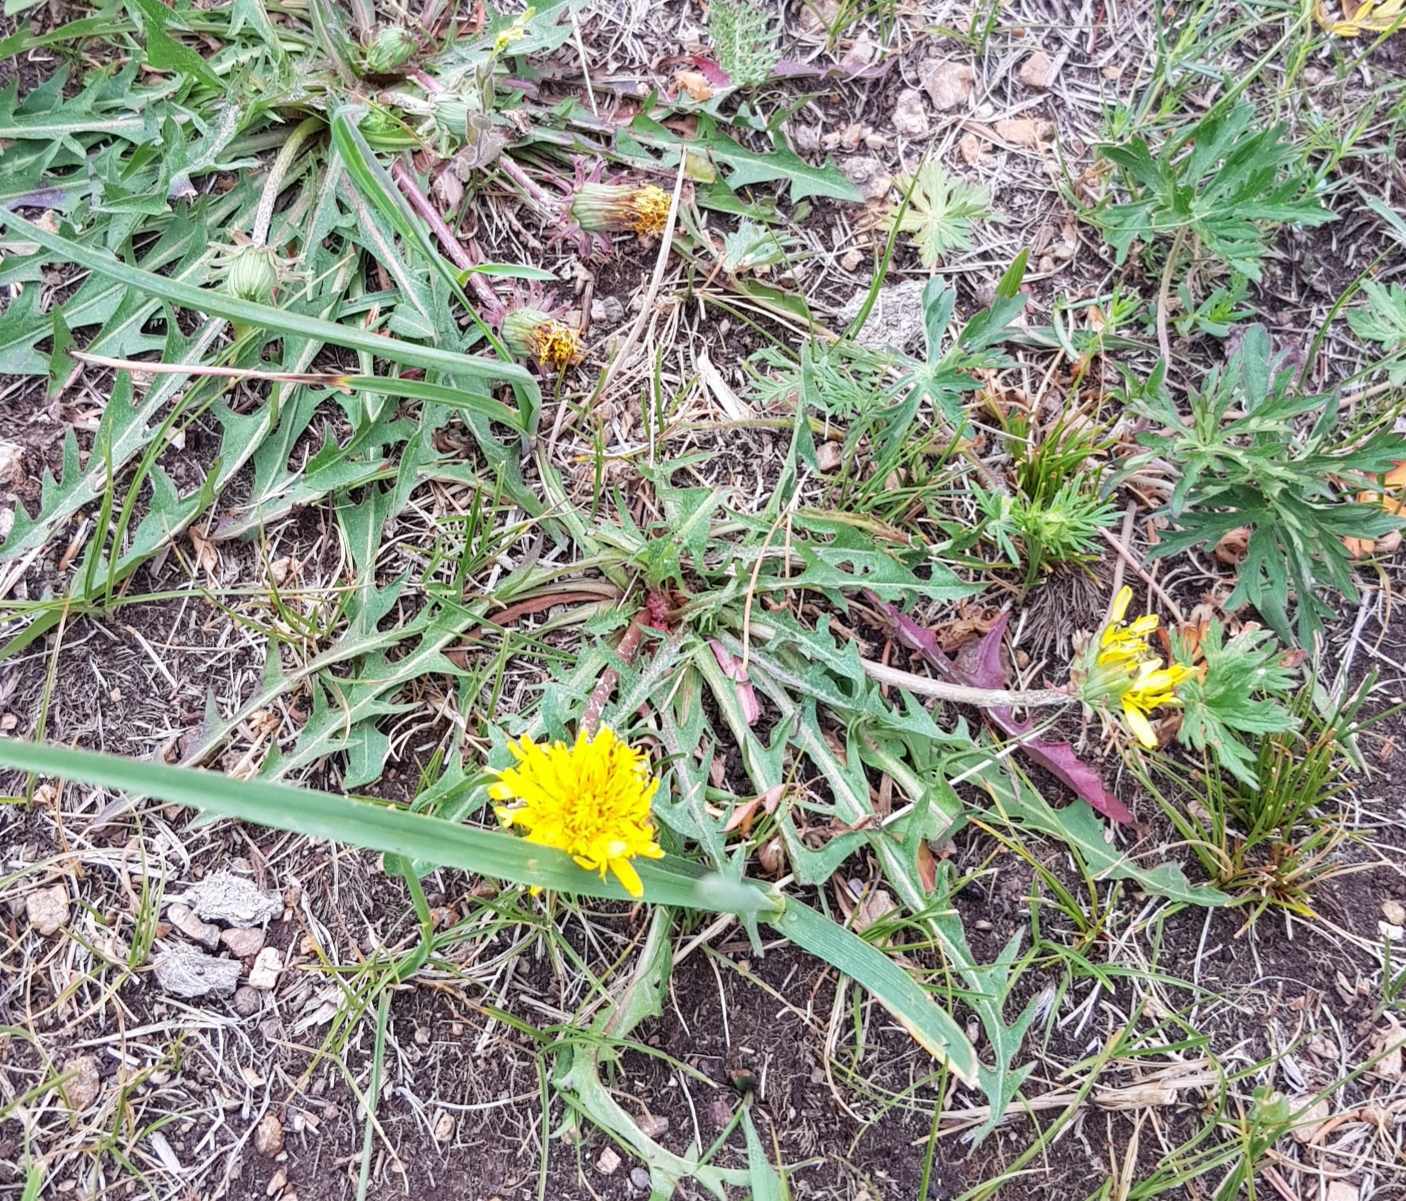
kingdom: Plantae
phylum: Tracheophyta
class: Magnoliopsida
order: Asterales
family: Asteraceae
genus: Taraxacum
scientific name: Taraxacum officinale
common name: Common dandelion
